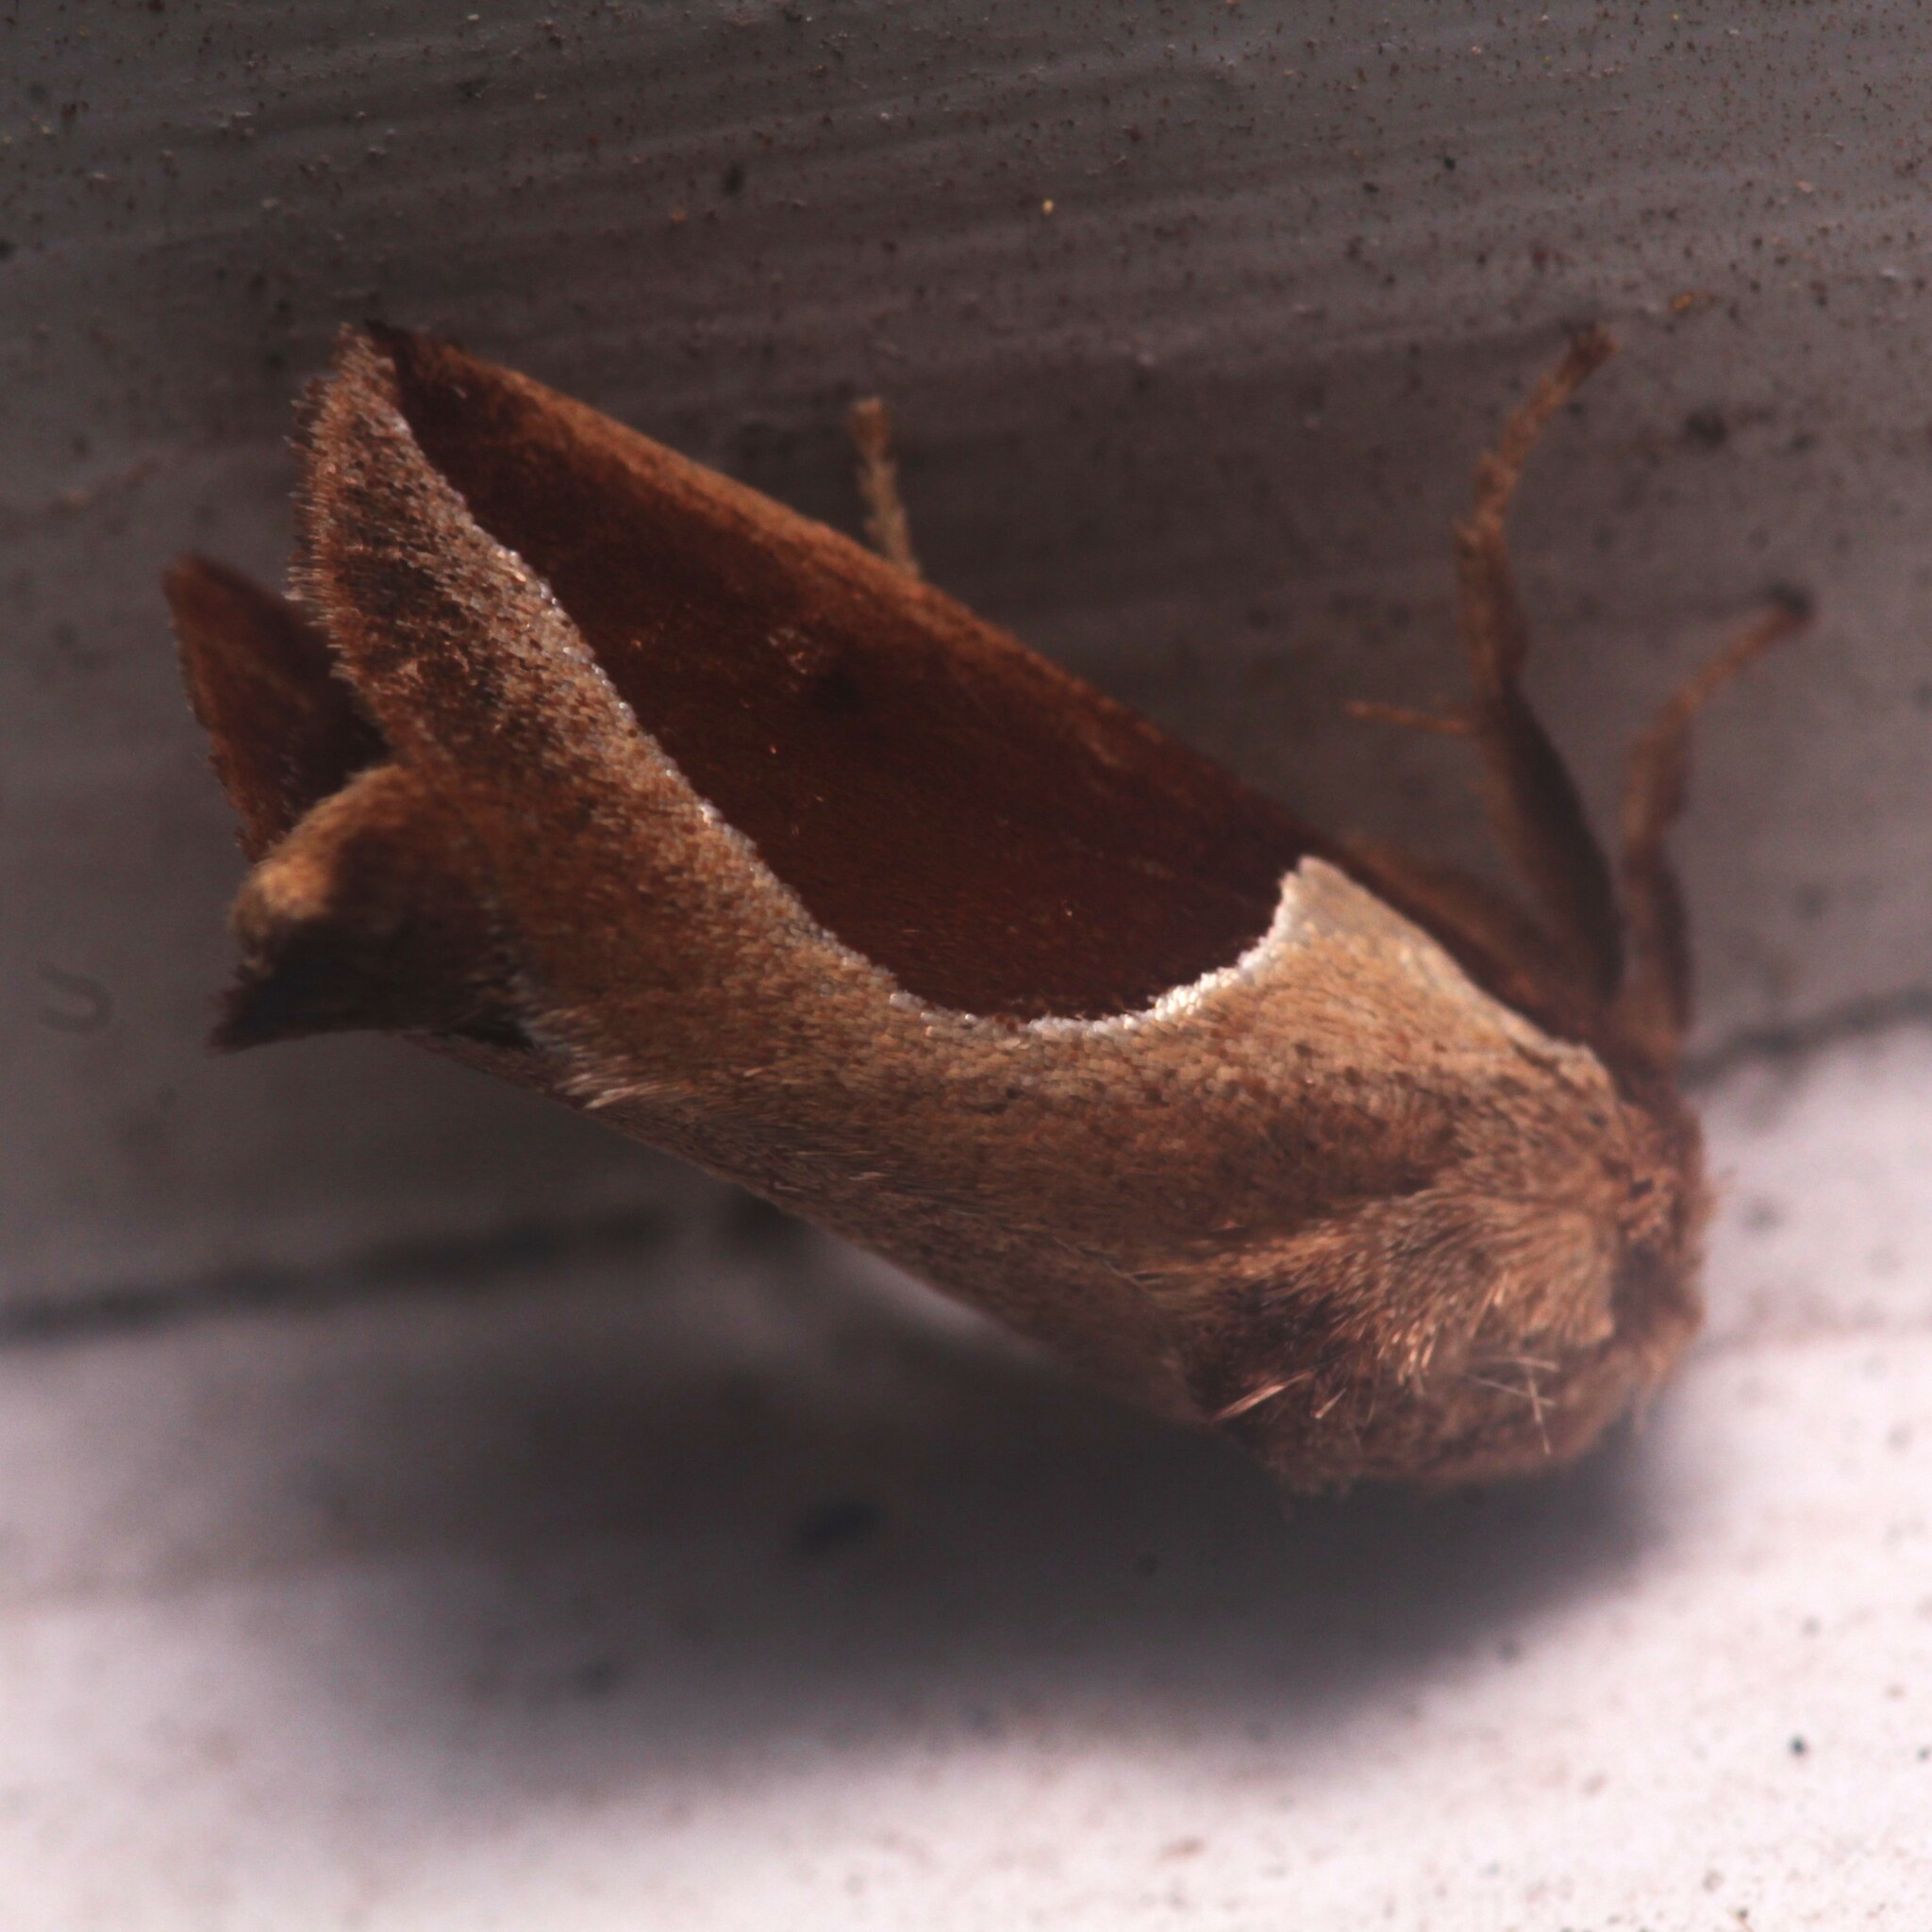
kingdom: Animalia
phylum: Arthropoda
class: Insecta
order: Lepidoptera
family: Limacodidae
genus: Prolimacodes
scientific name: Prolimacodes badia
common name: Skiff moth
